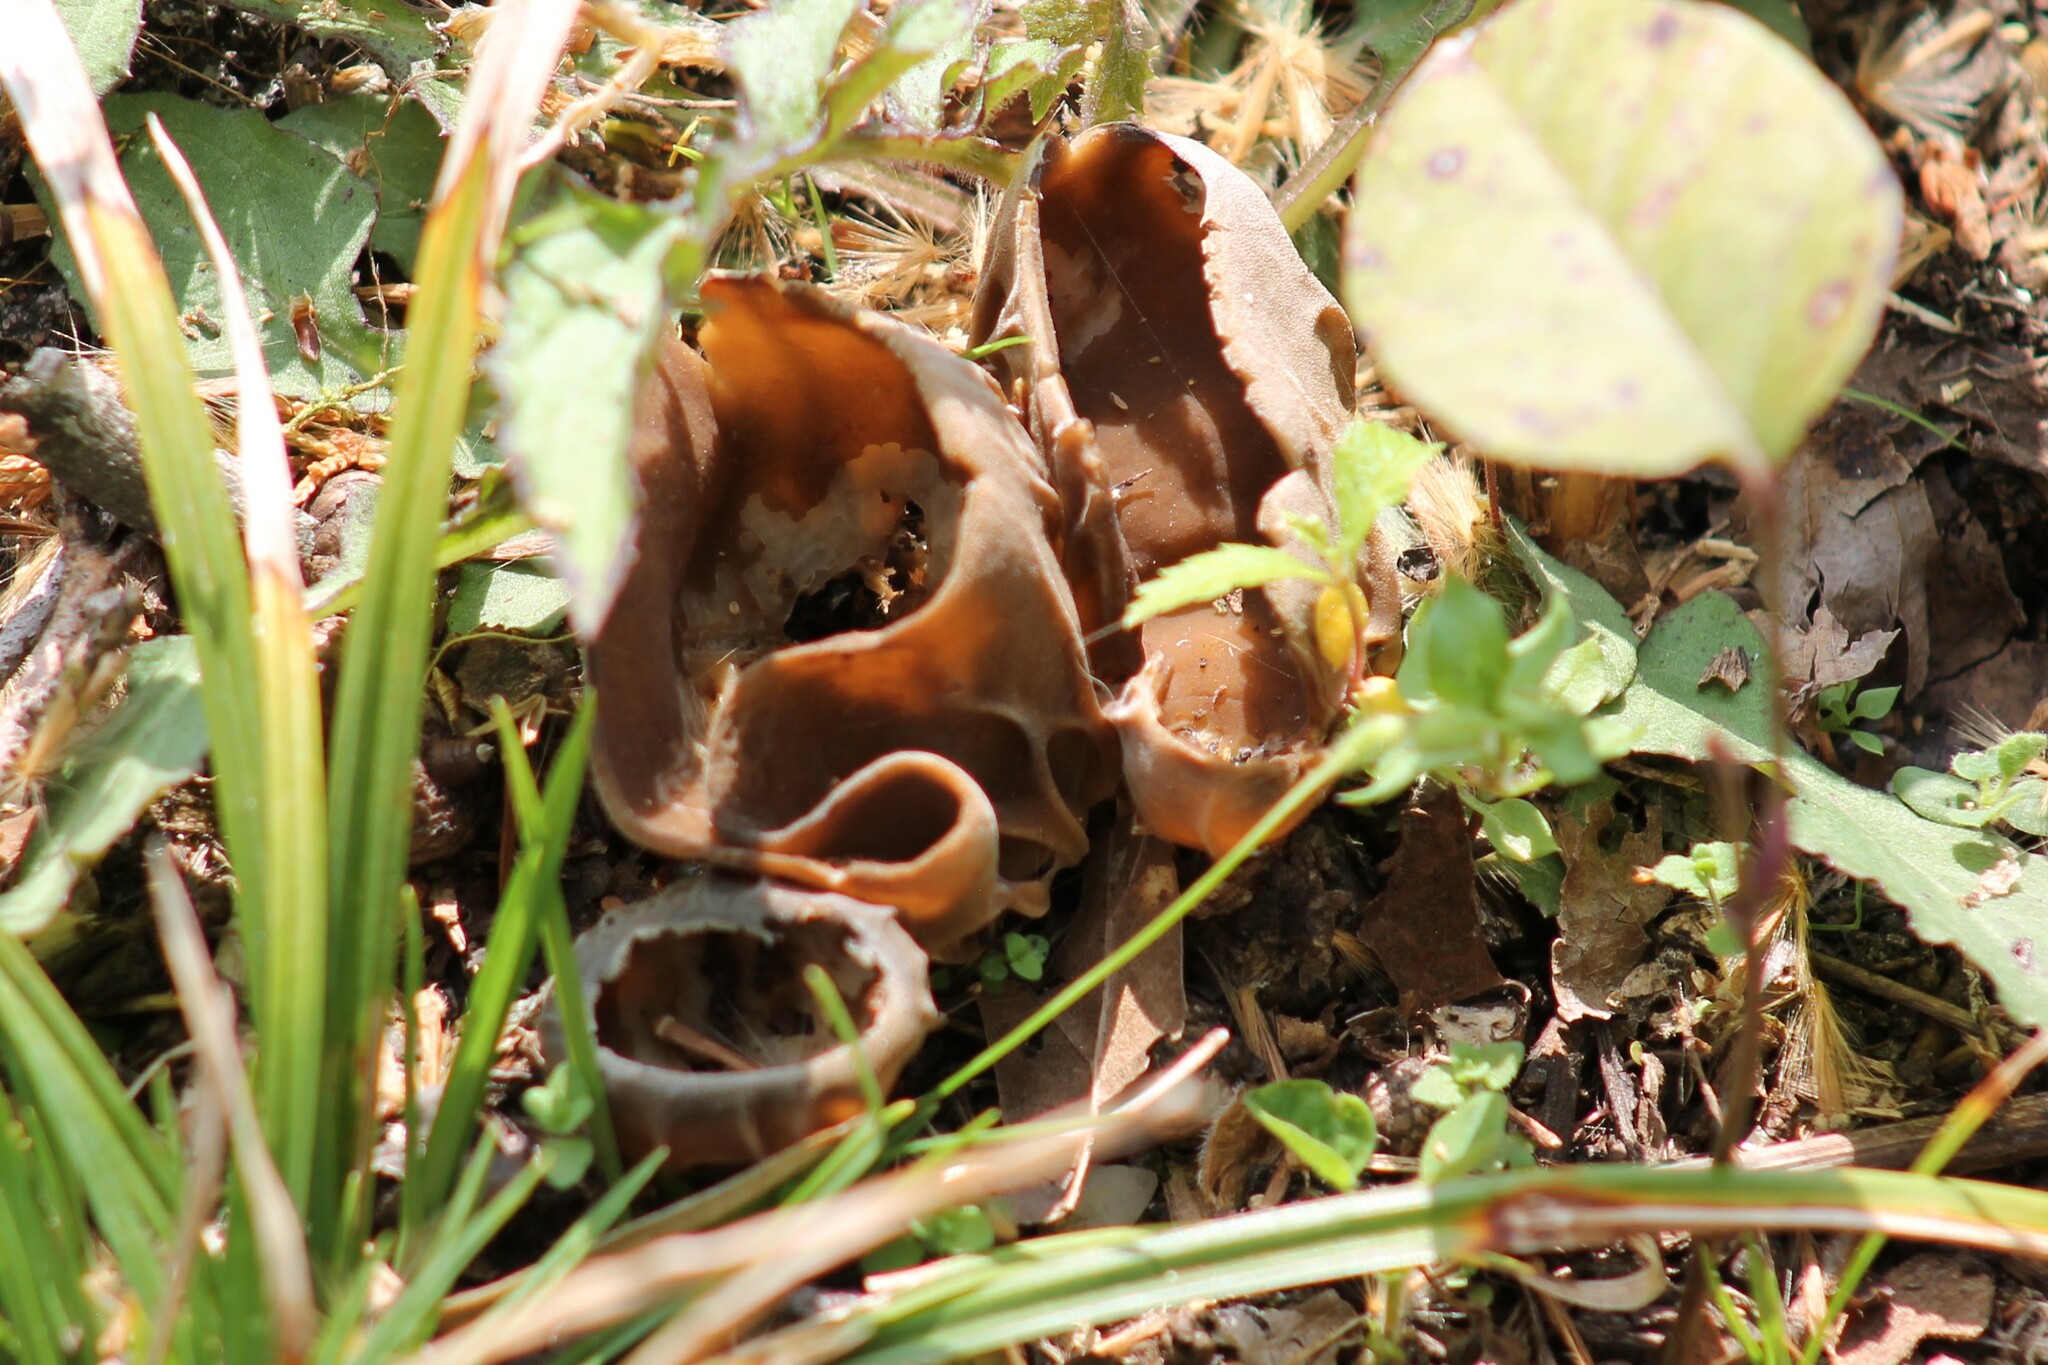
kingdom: Fungi
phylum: Ascomycota
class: Pezizomycetes
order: Pezizales
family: Helvellaceae
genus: Helvella
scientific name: Helvella acetabulum
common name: Vinegar cup
